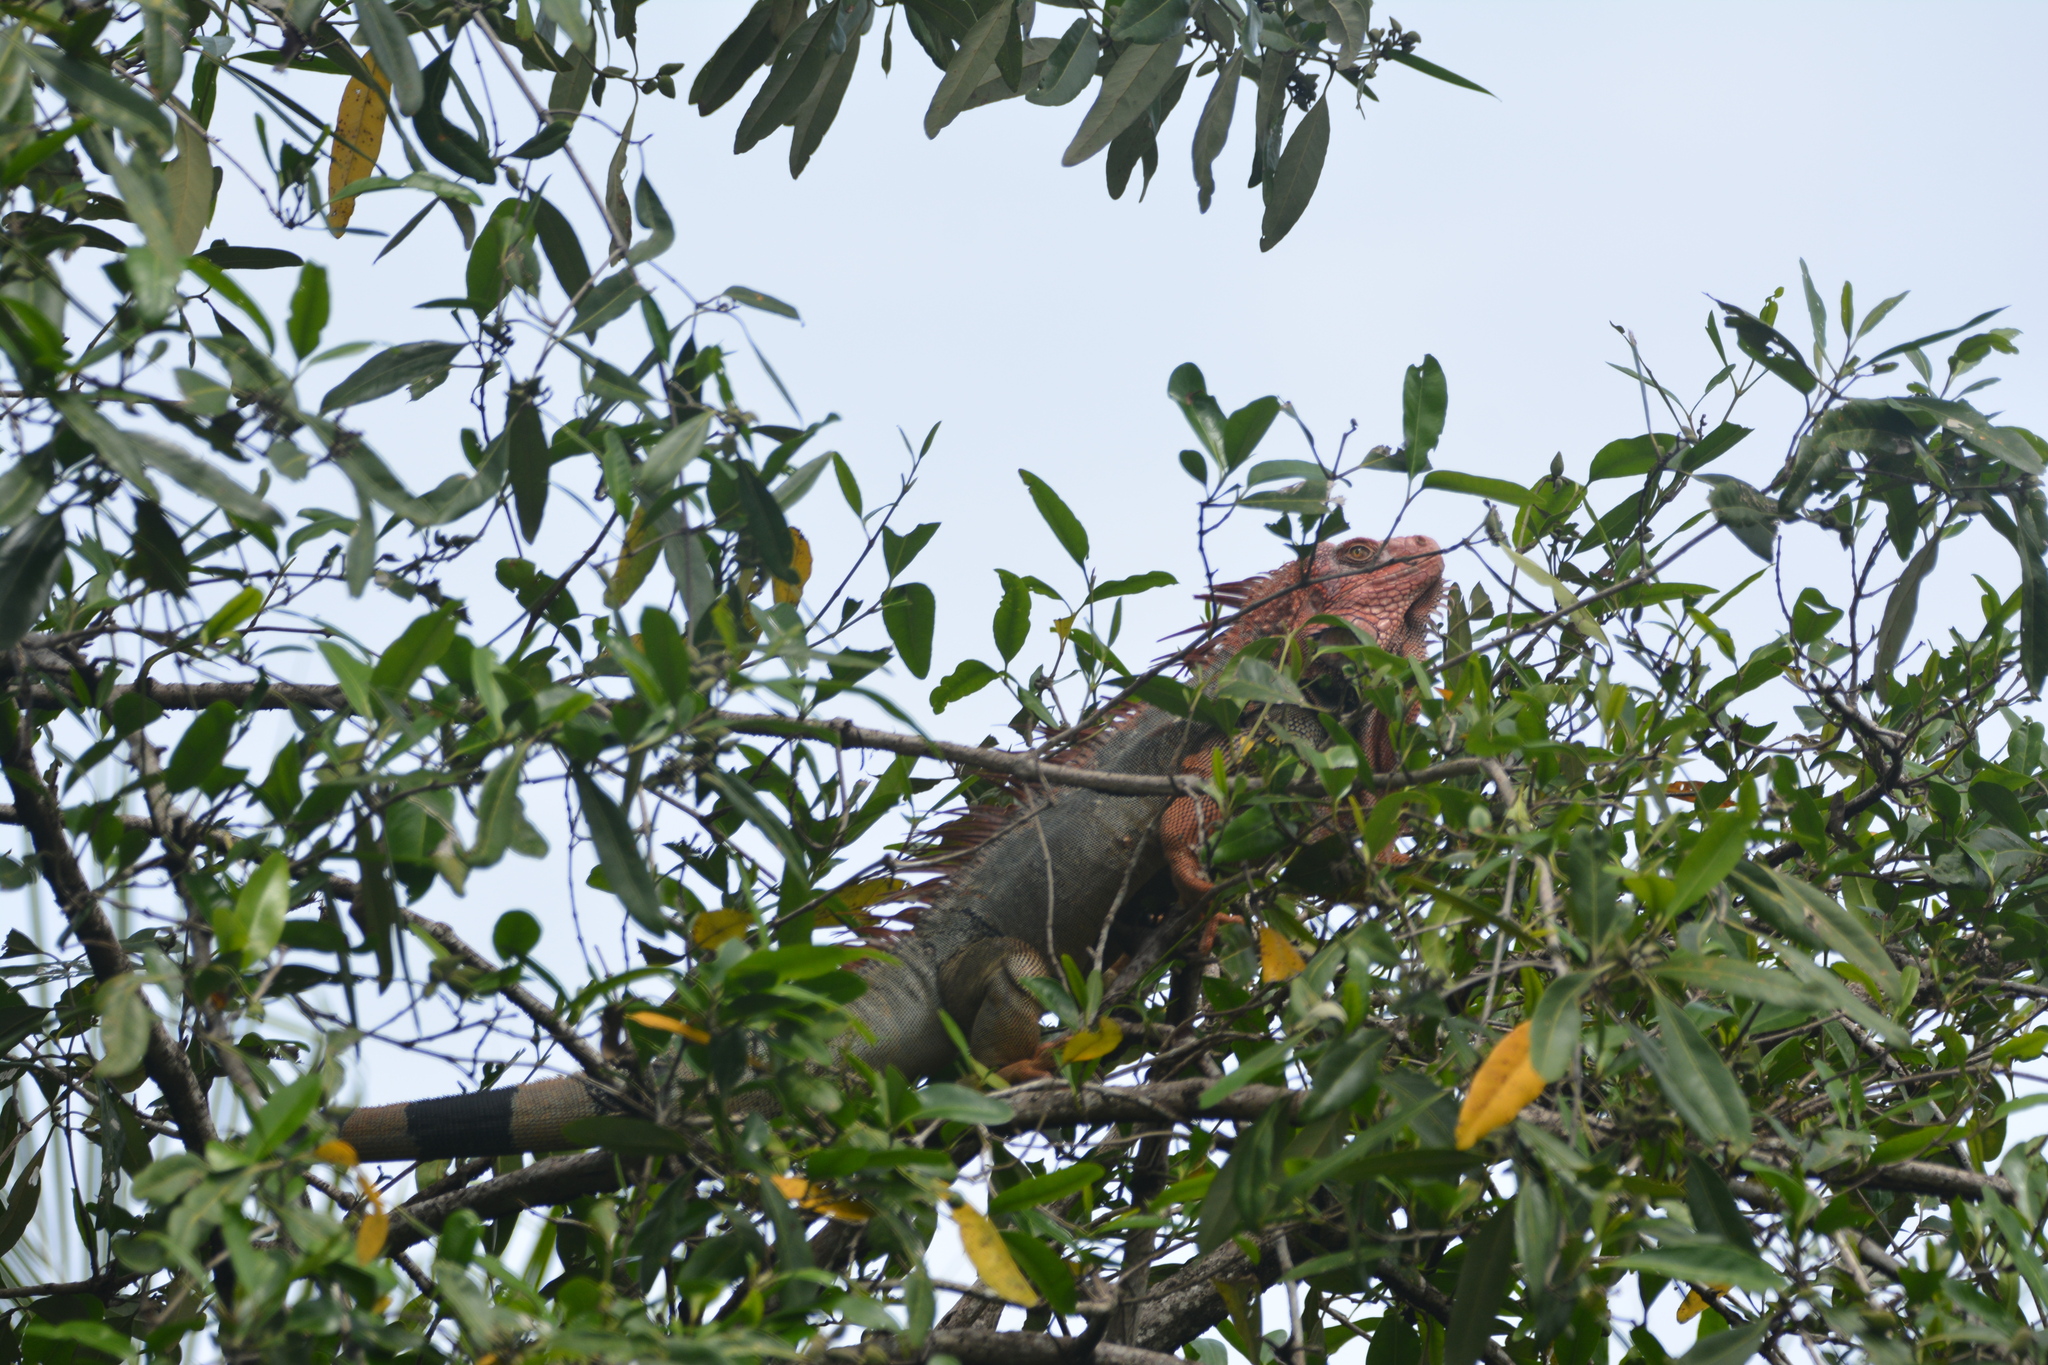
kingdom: Animalia
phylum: Chordata
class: Squamata
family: Iguanidae
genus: Iguana
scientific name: Iguana iguana
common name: Green iguana
